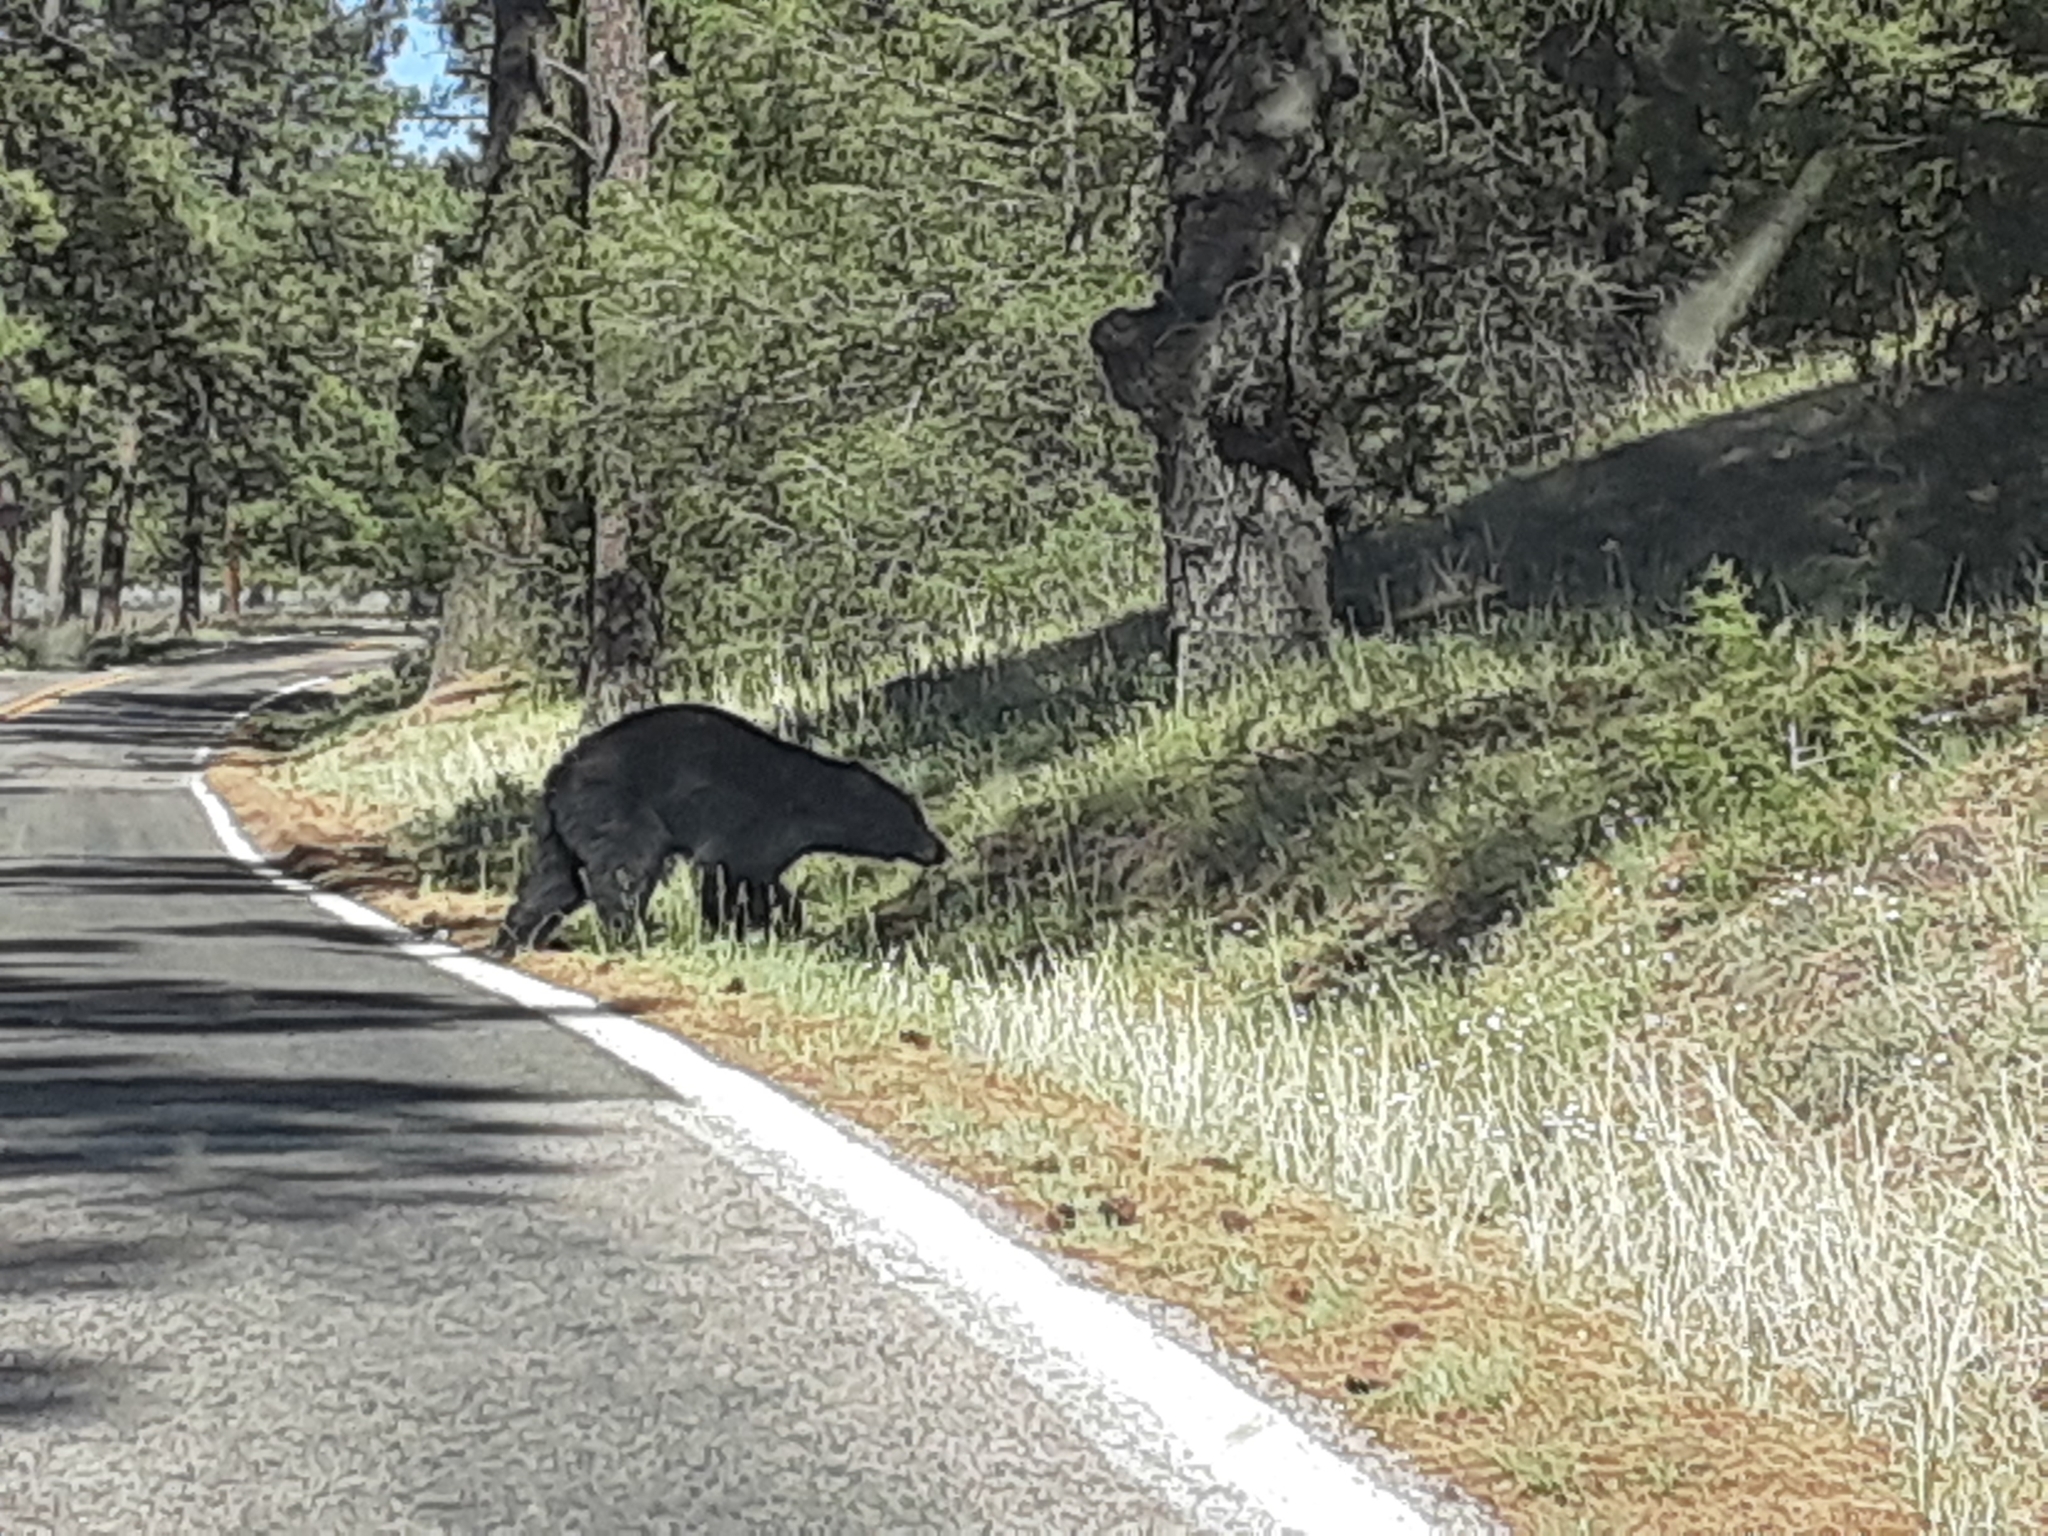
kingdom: Animalia
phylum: Chordata
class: Mammalia
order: Carnivora
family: Ursidae
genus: Ursus
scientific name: Ursus americanus
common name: American black bear
